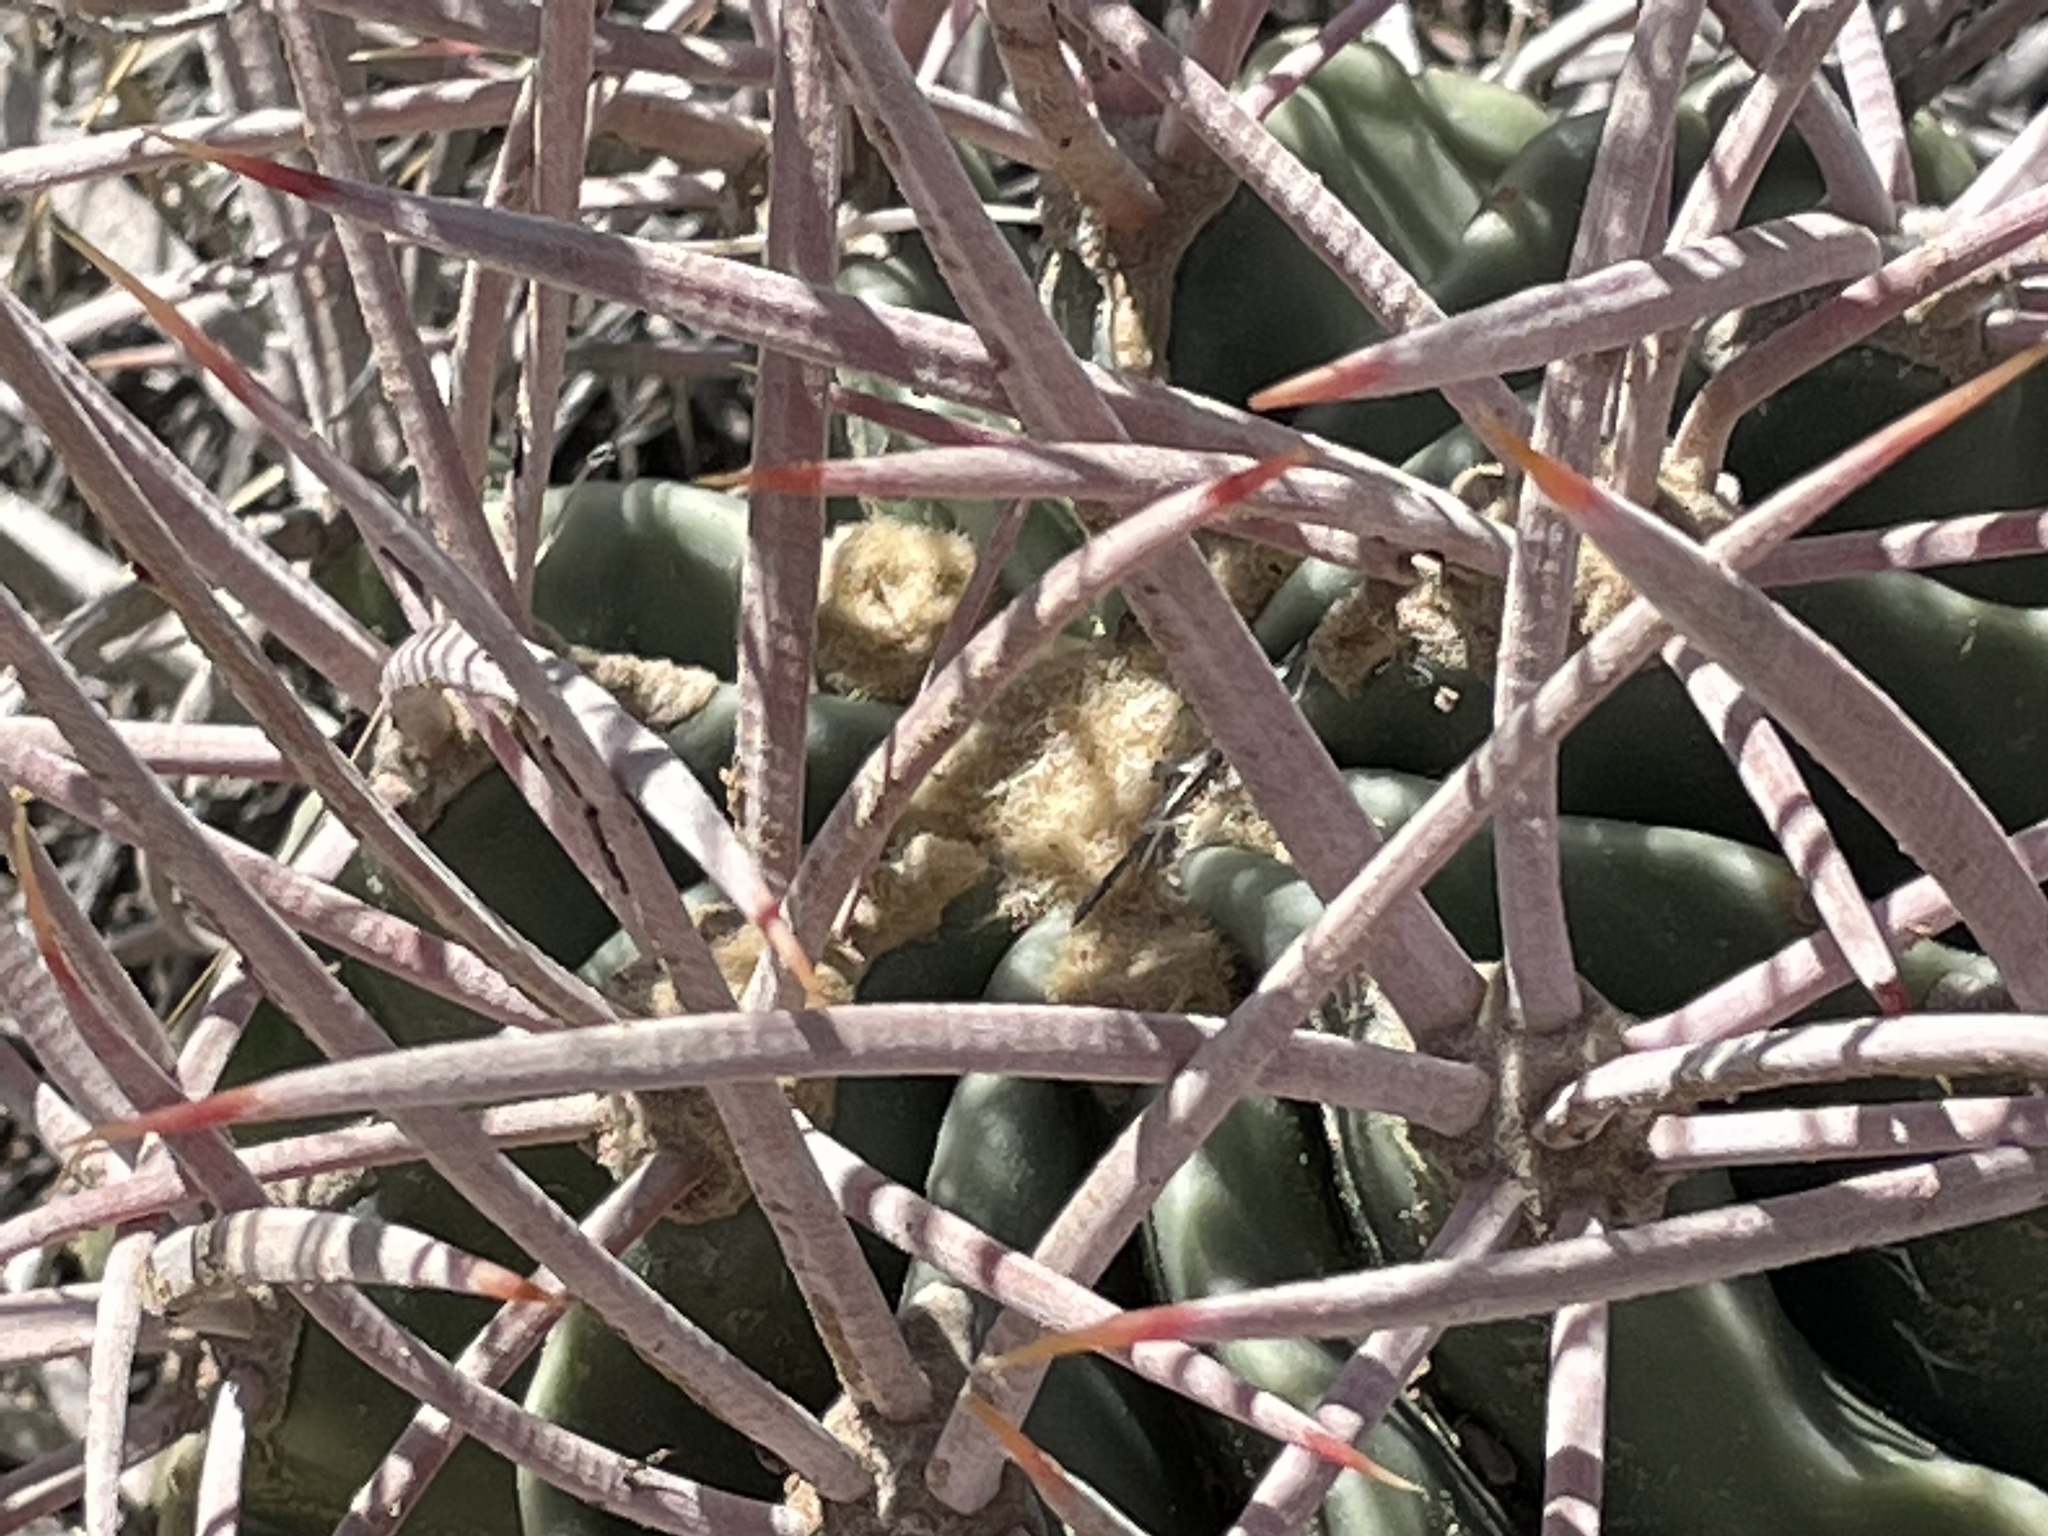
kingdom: Plantae
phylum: Tracheophyta
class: Magnoliopsida
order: Caryophyllales
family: Cactaceae
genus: Echinocactus
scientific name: Echinocactus polycephalus
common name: Cottontop cactus
